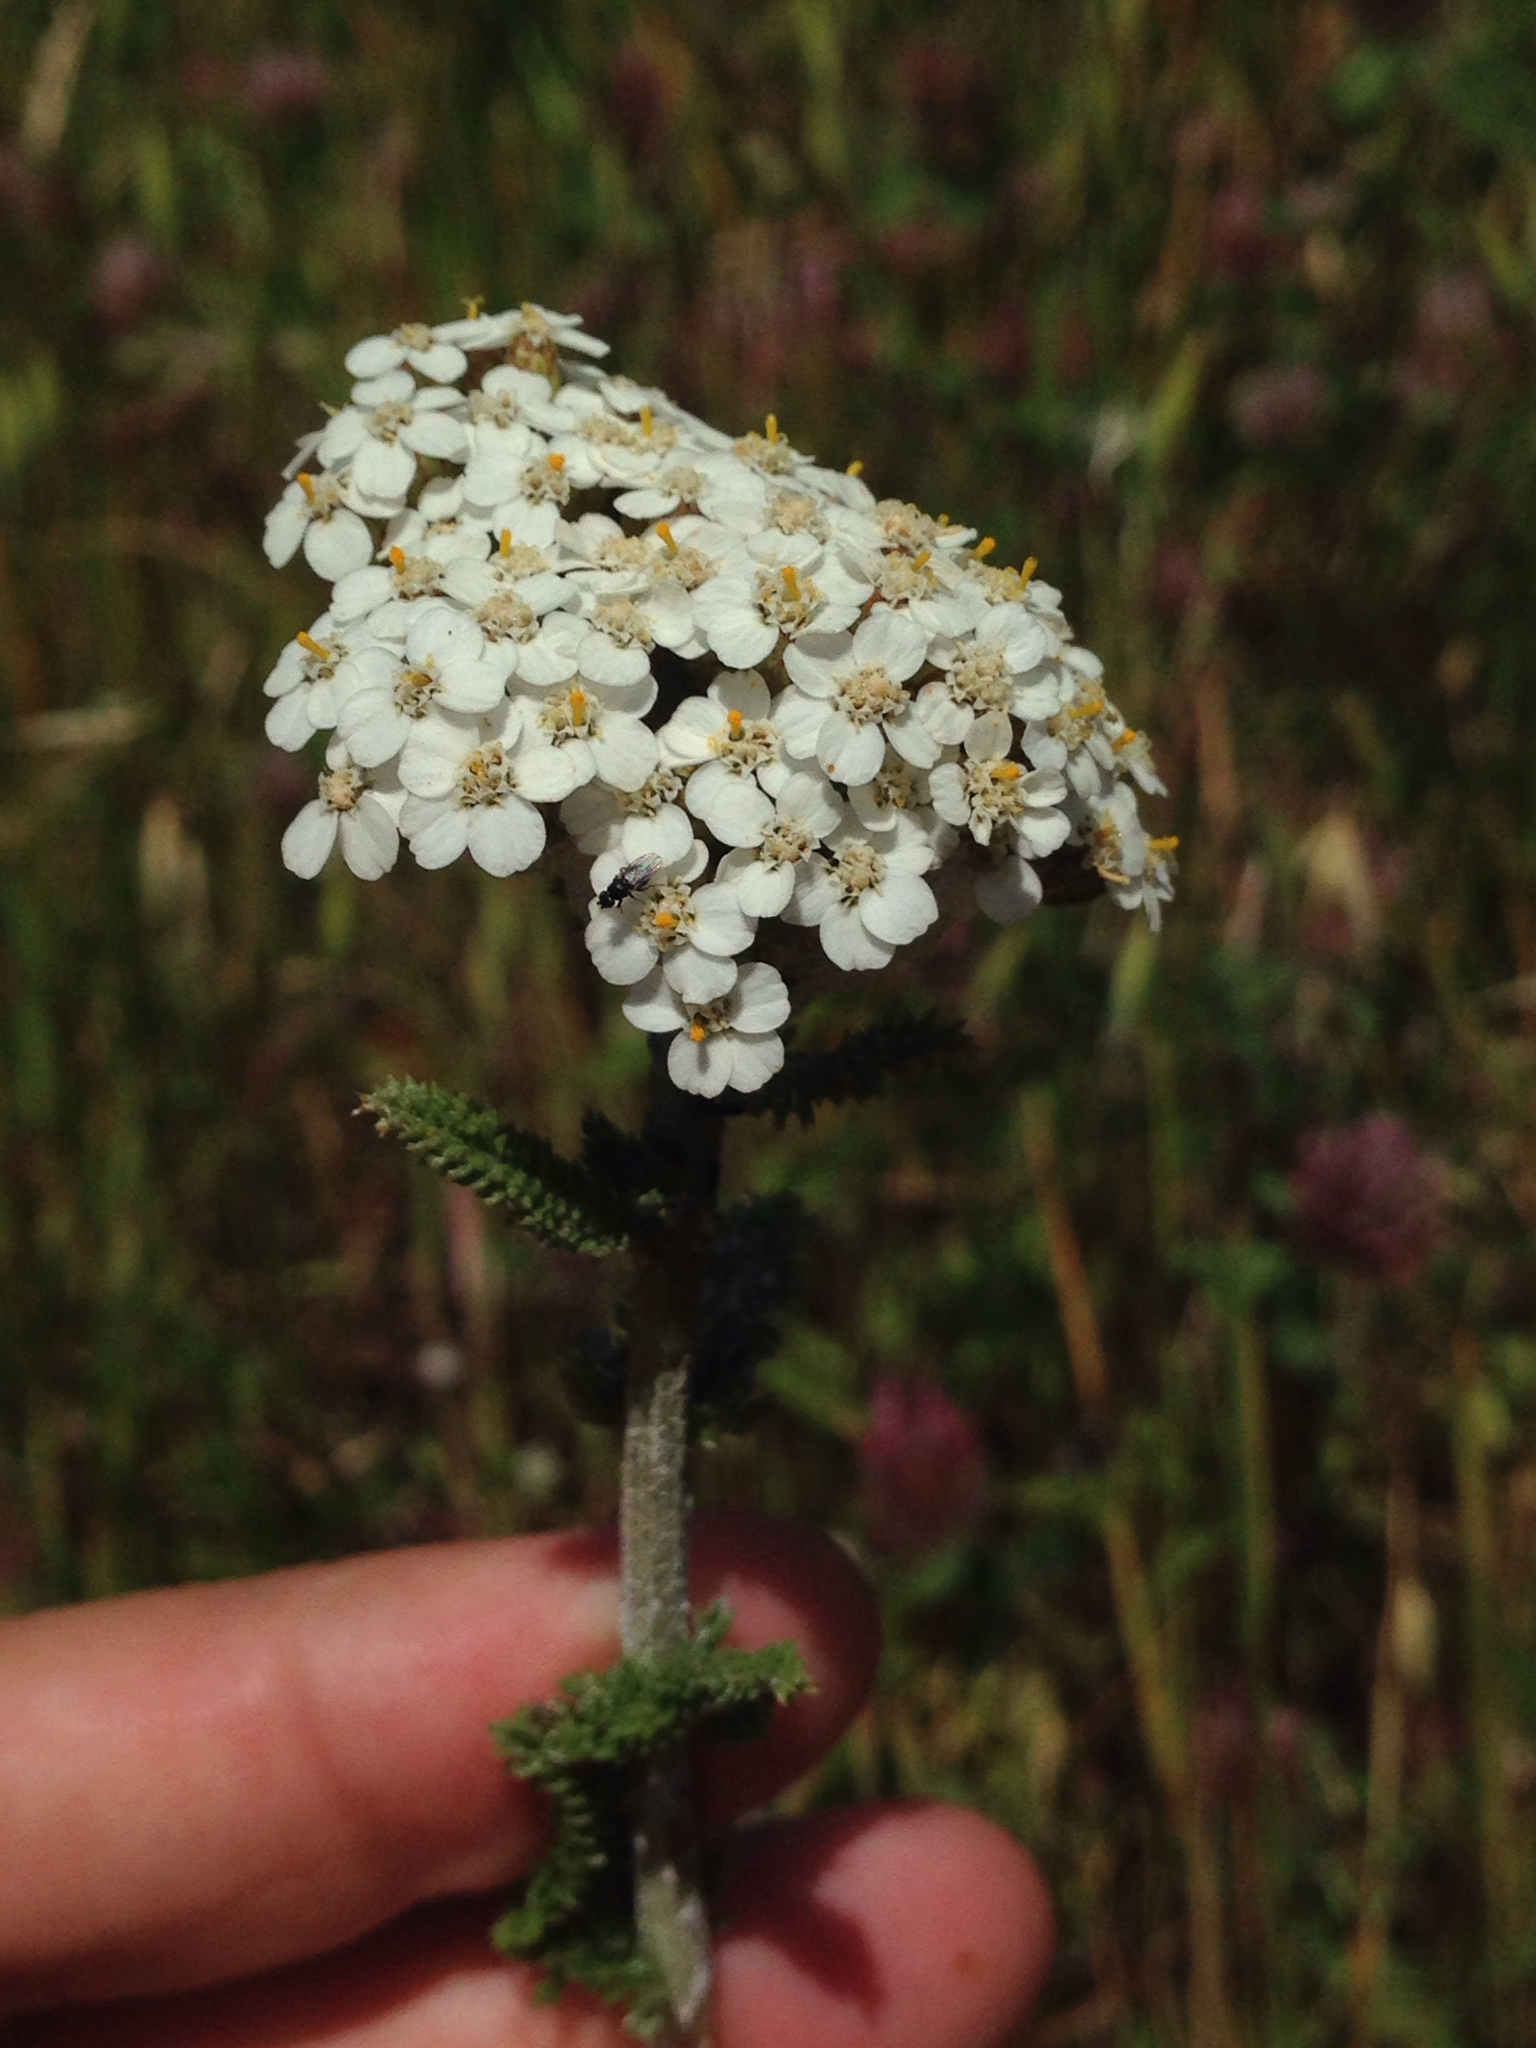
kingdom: Plantae
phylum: Tracheophyta
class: Magnoliopsida
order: Asterales
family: Asteraceae
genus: Achillea
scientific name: Achillea millefolium
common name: Yarrow
